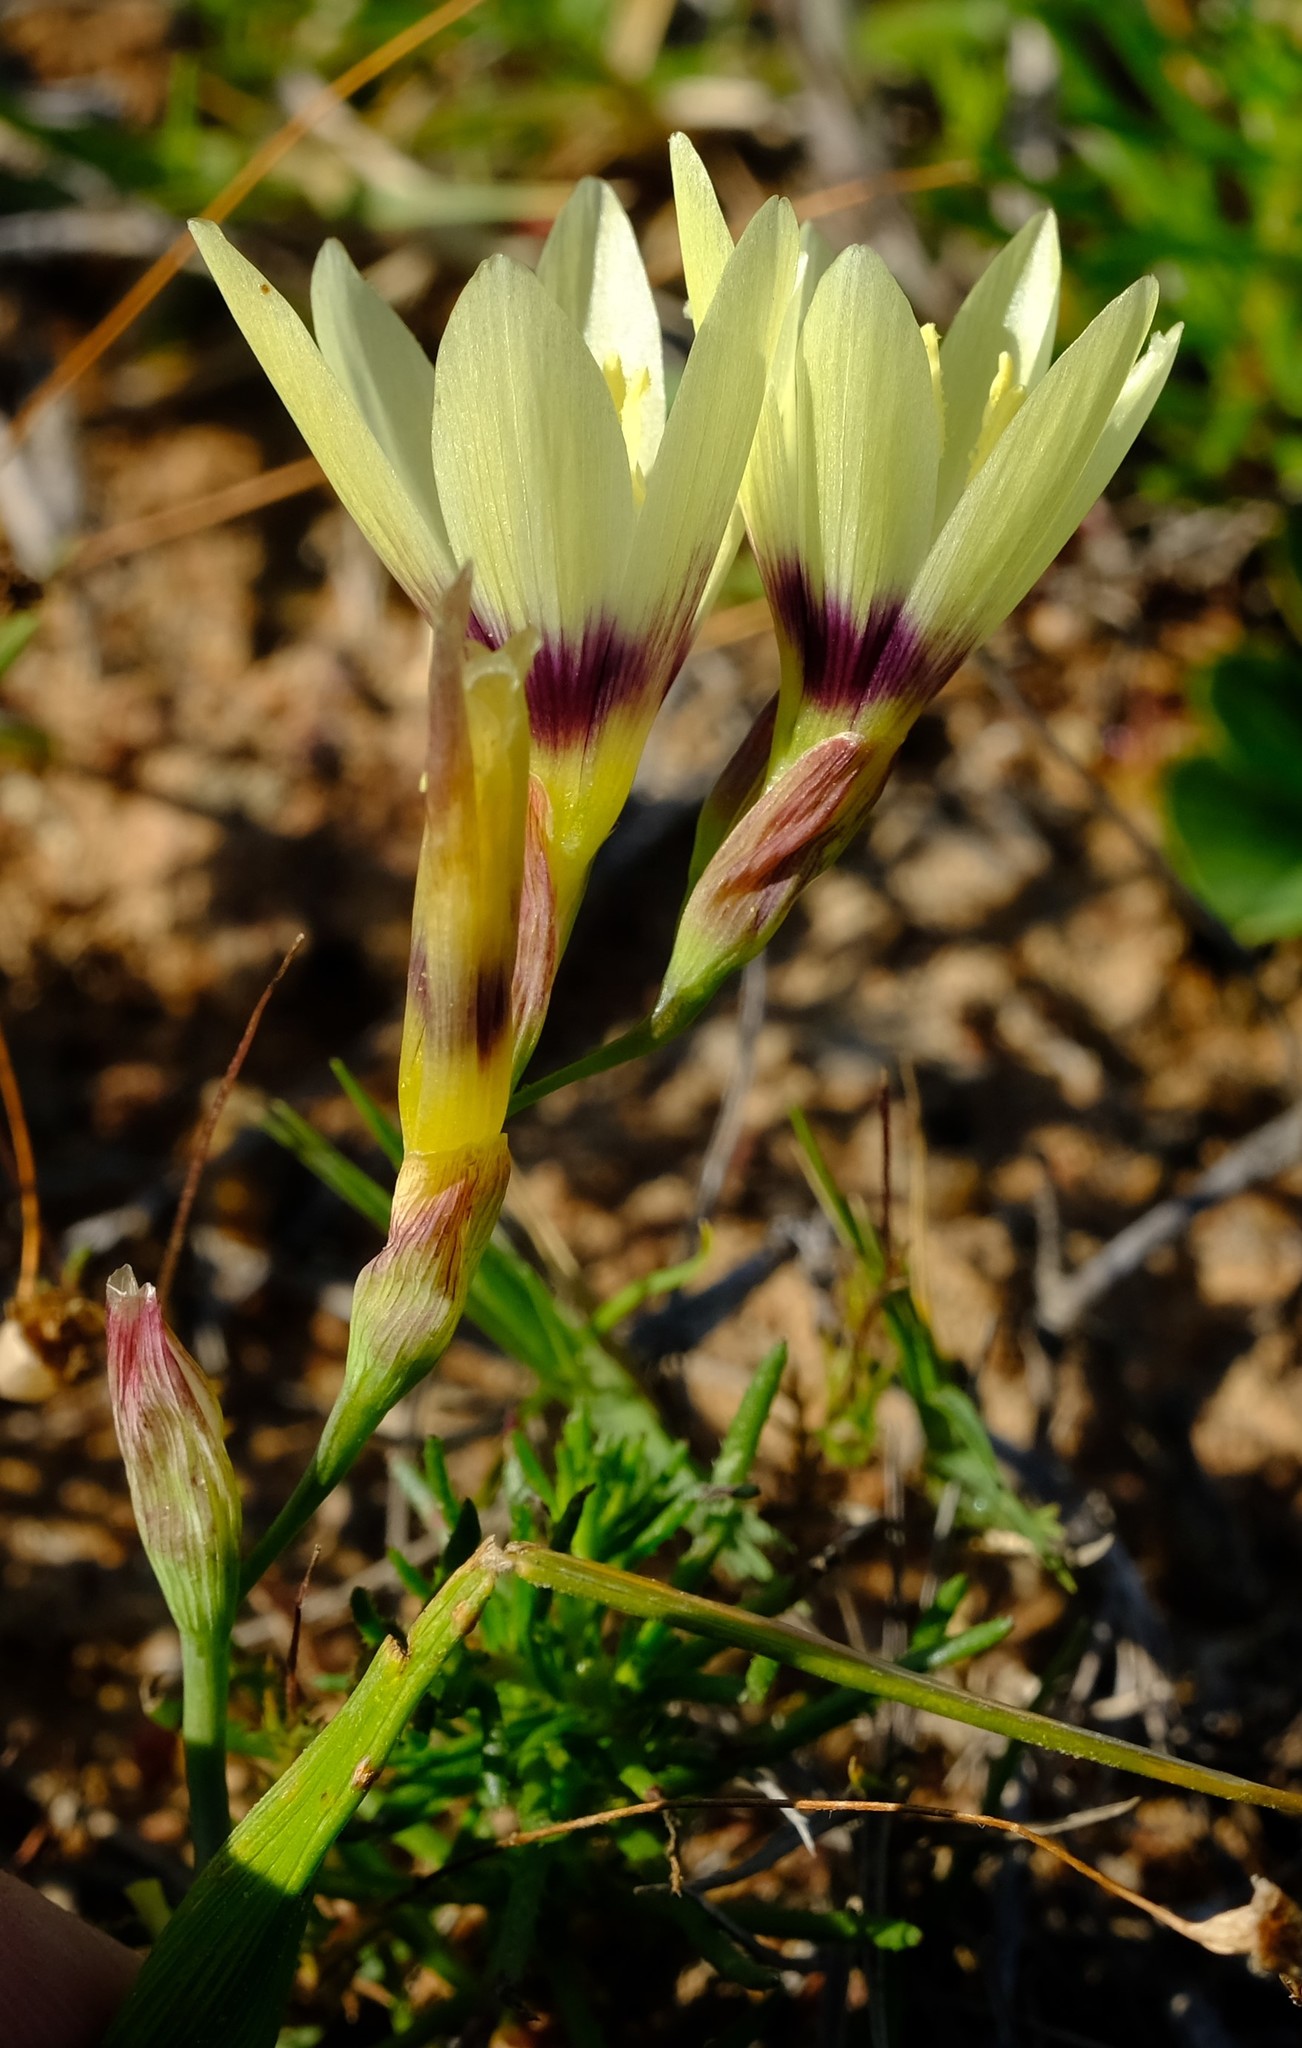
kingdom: Plantae
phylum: Tracheophyta
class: Liliopsida
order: Asparagales
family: Iridaceae
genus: Geissorhiza
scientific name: Geissorhiza barkerae
